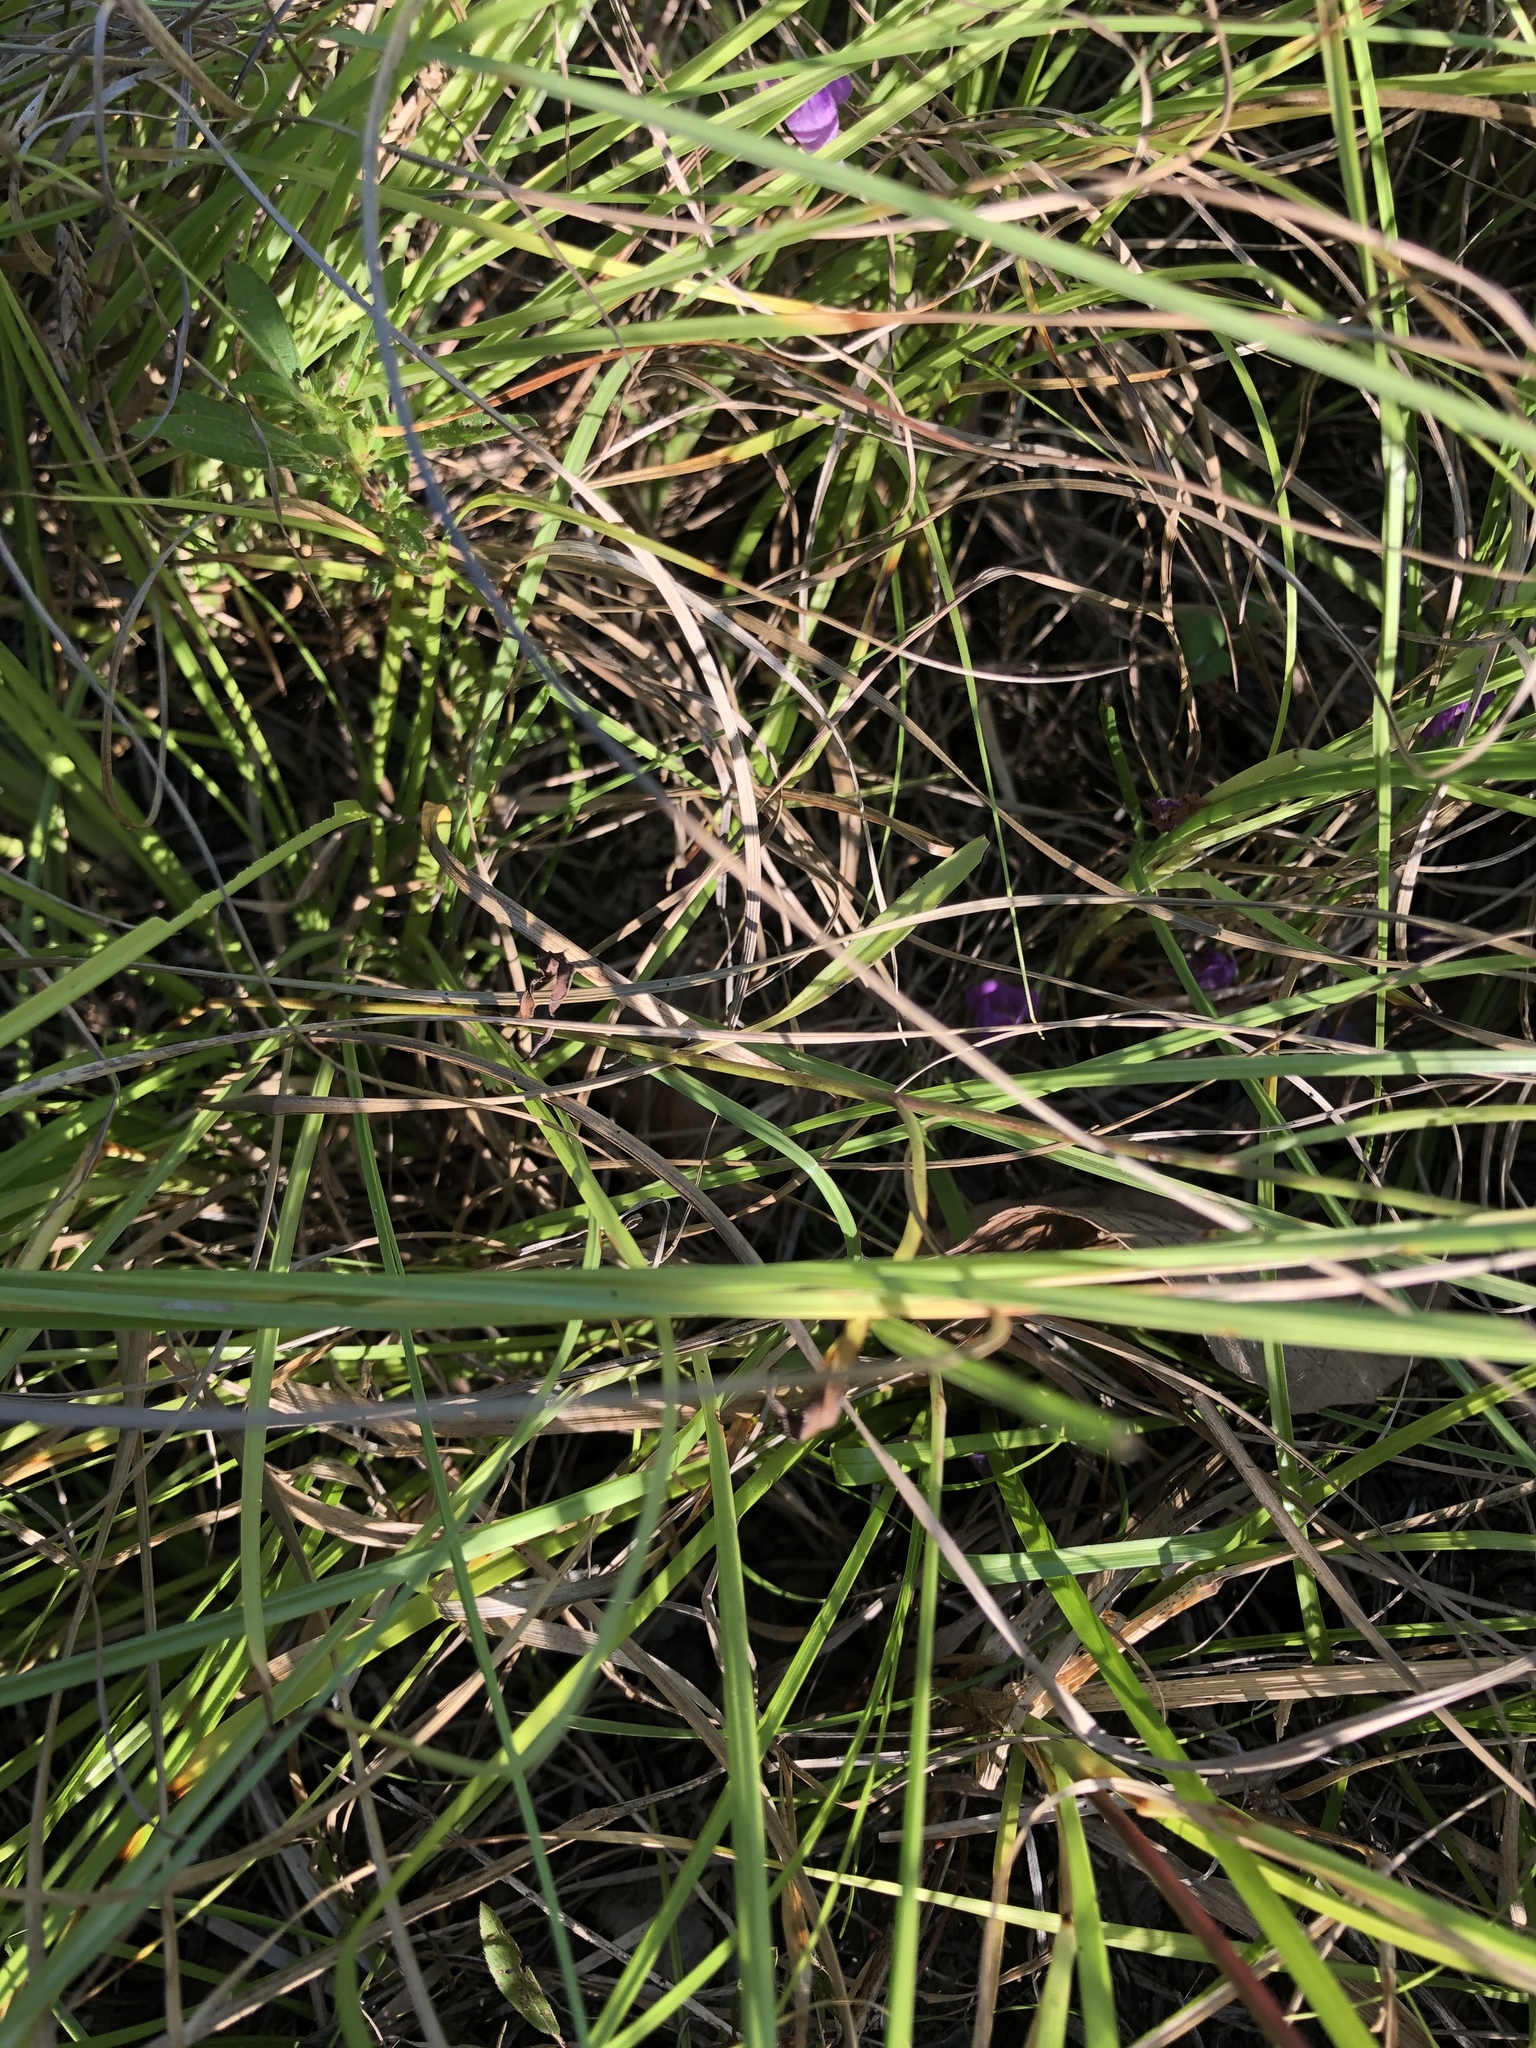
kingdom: Plantae
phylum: Tracheophyta
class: Magnoliopsida
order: Asterales
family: Asteraceae
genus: Symphyotrichum
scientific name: Symphyotrichum divaricatum
